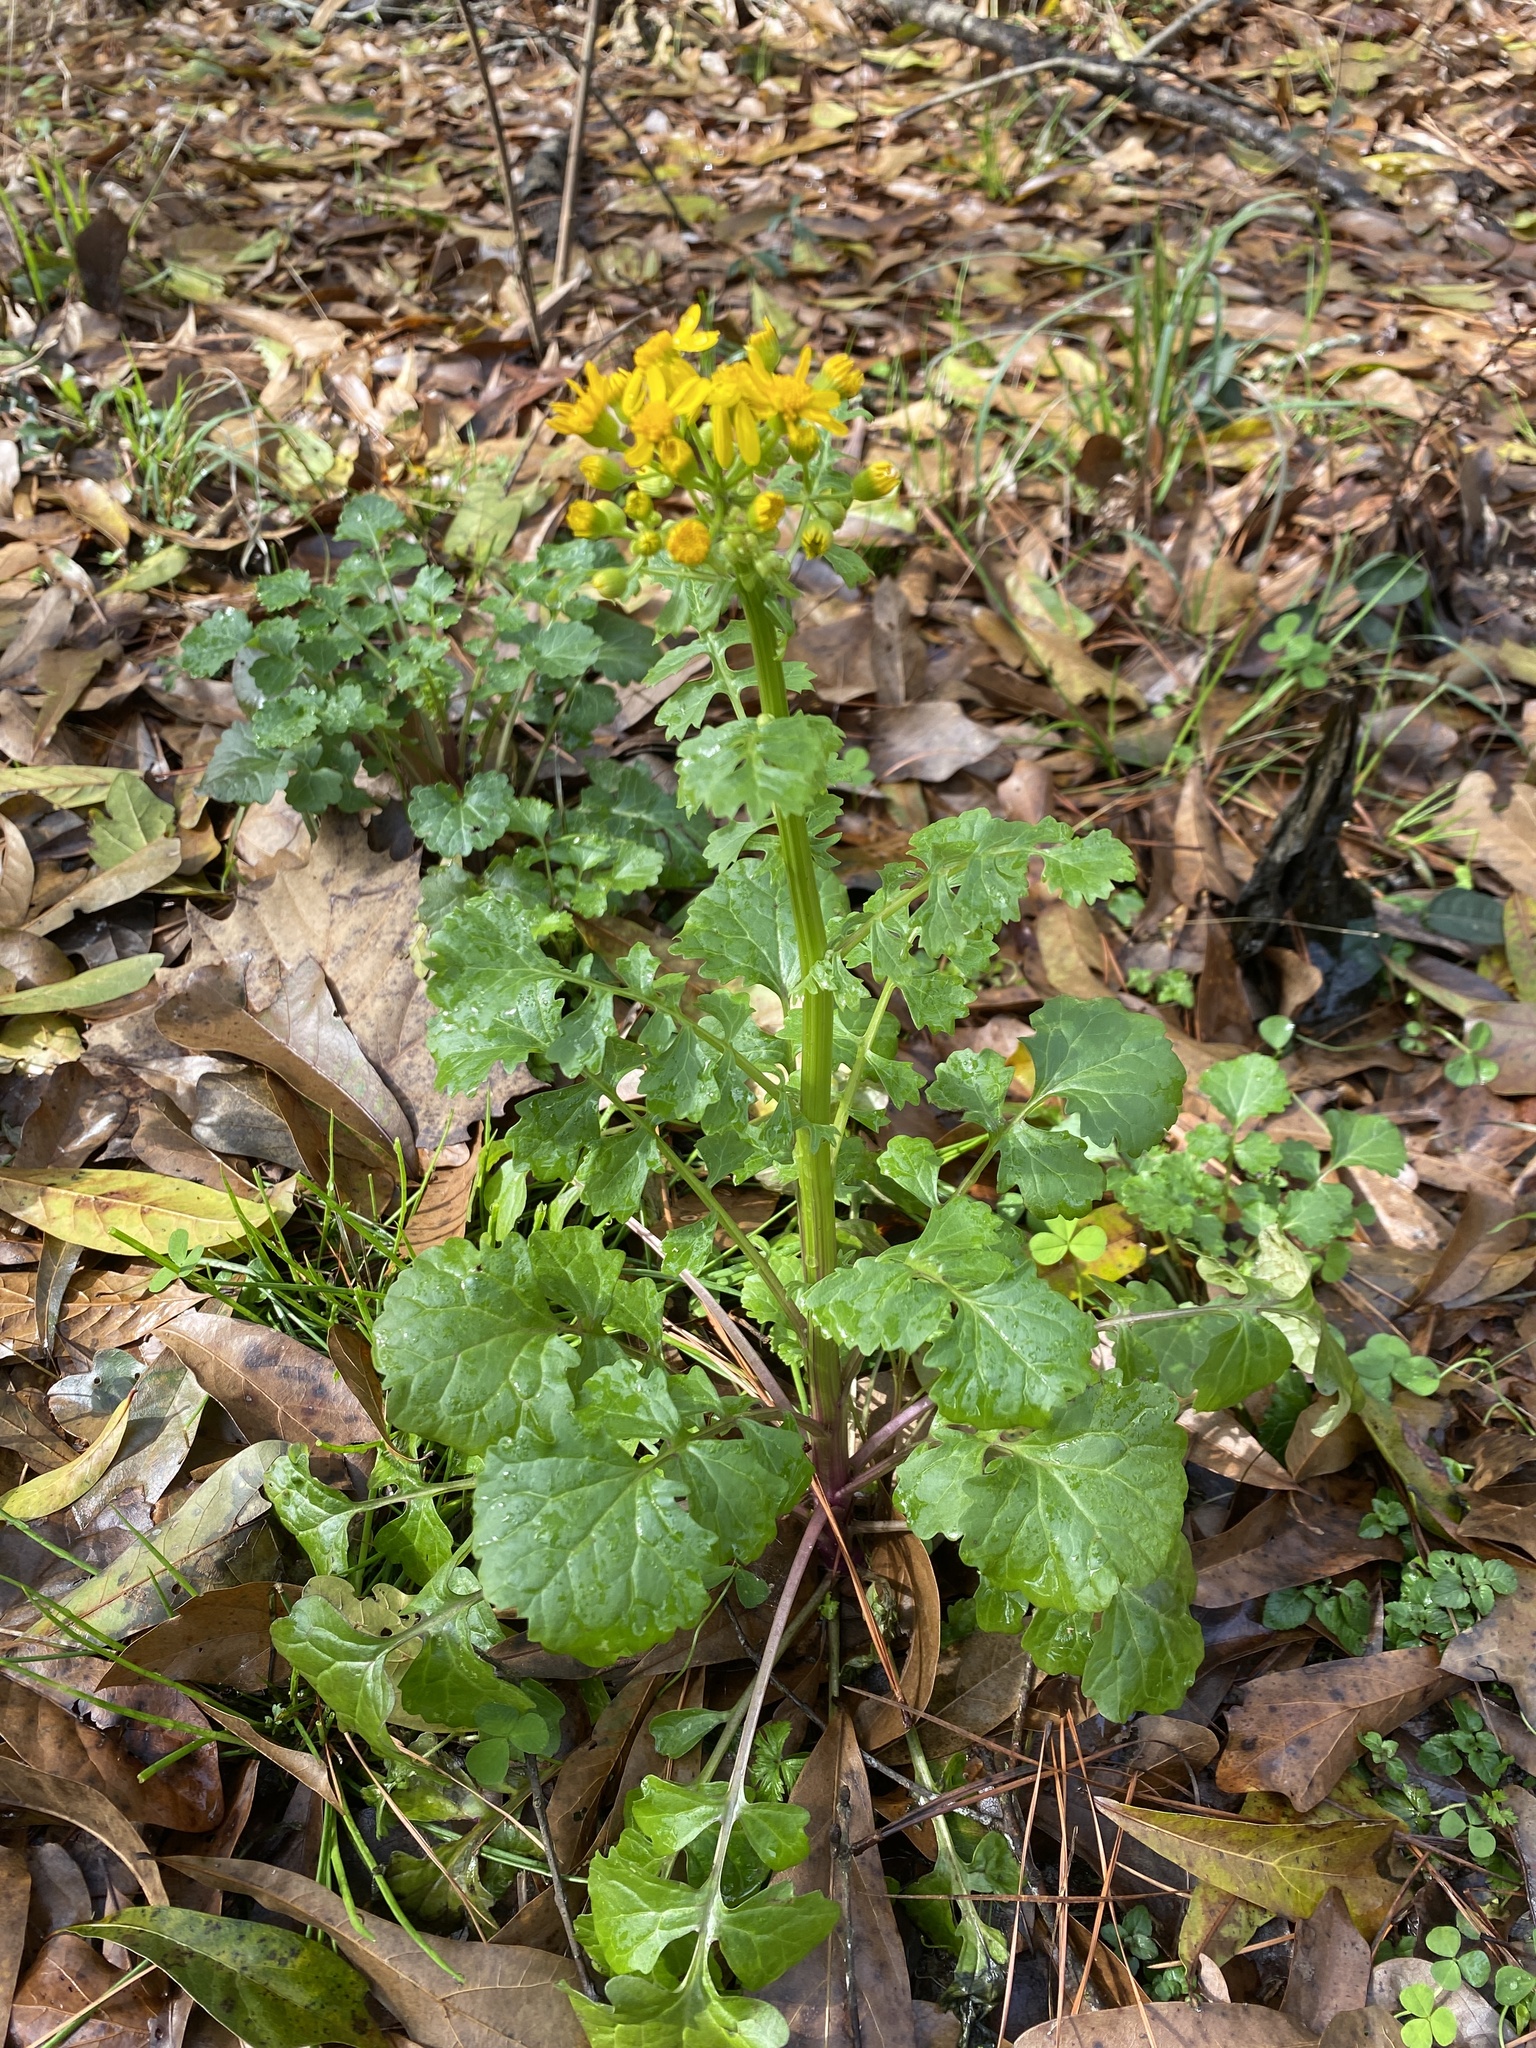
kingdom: Plantae
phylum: Tracheophyta
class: Magnoliopsida
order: Asterales
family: Asteraceae
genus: Packera
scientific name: Packera glabella
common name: Butterweed
